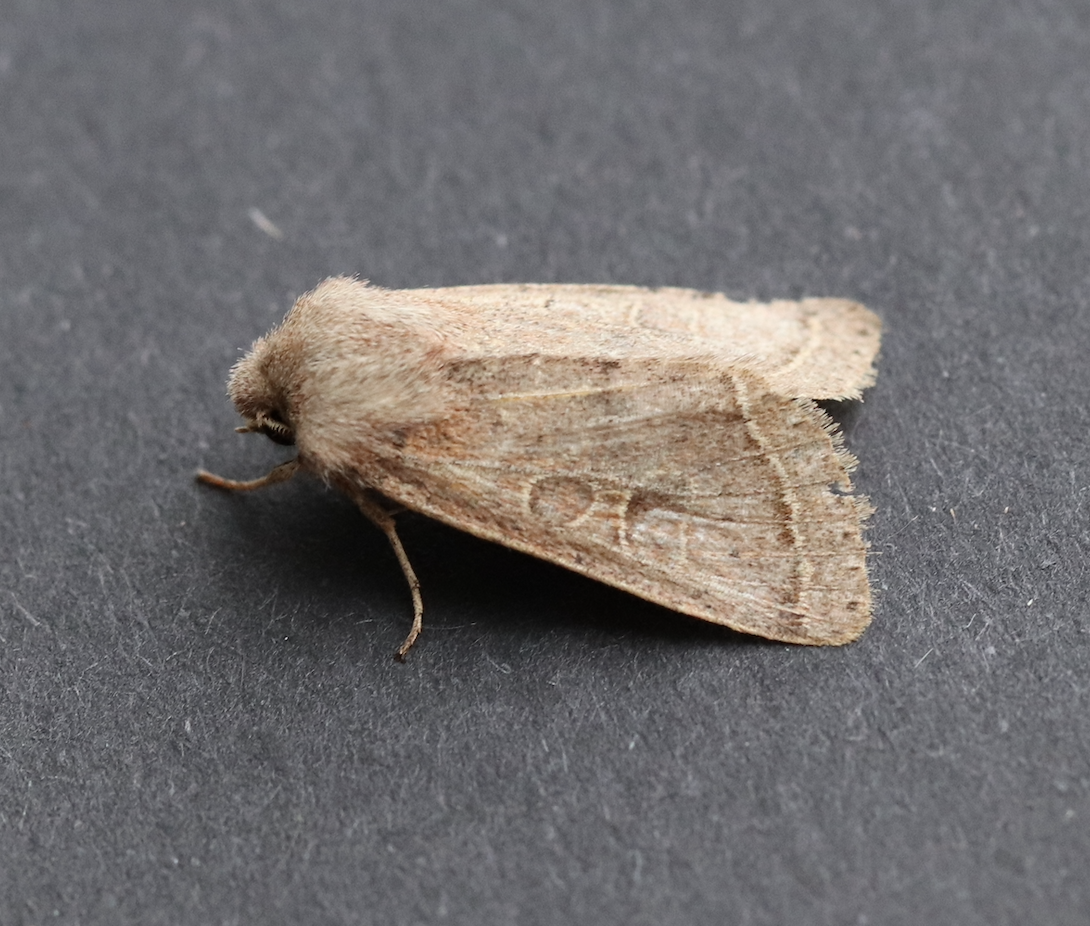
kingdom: Animalia
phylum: Arthropoda
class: Insecta
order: Lepidoptera
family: Noctuidae
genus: Orthosia
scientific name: Orthosia cerasi
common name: Common quaker
